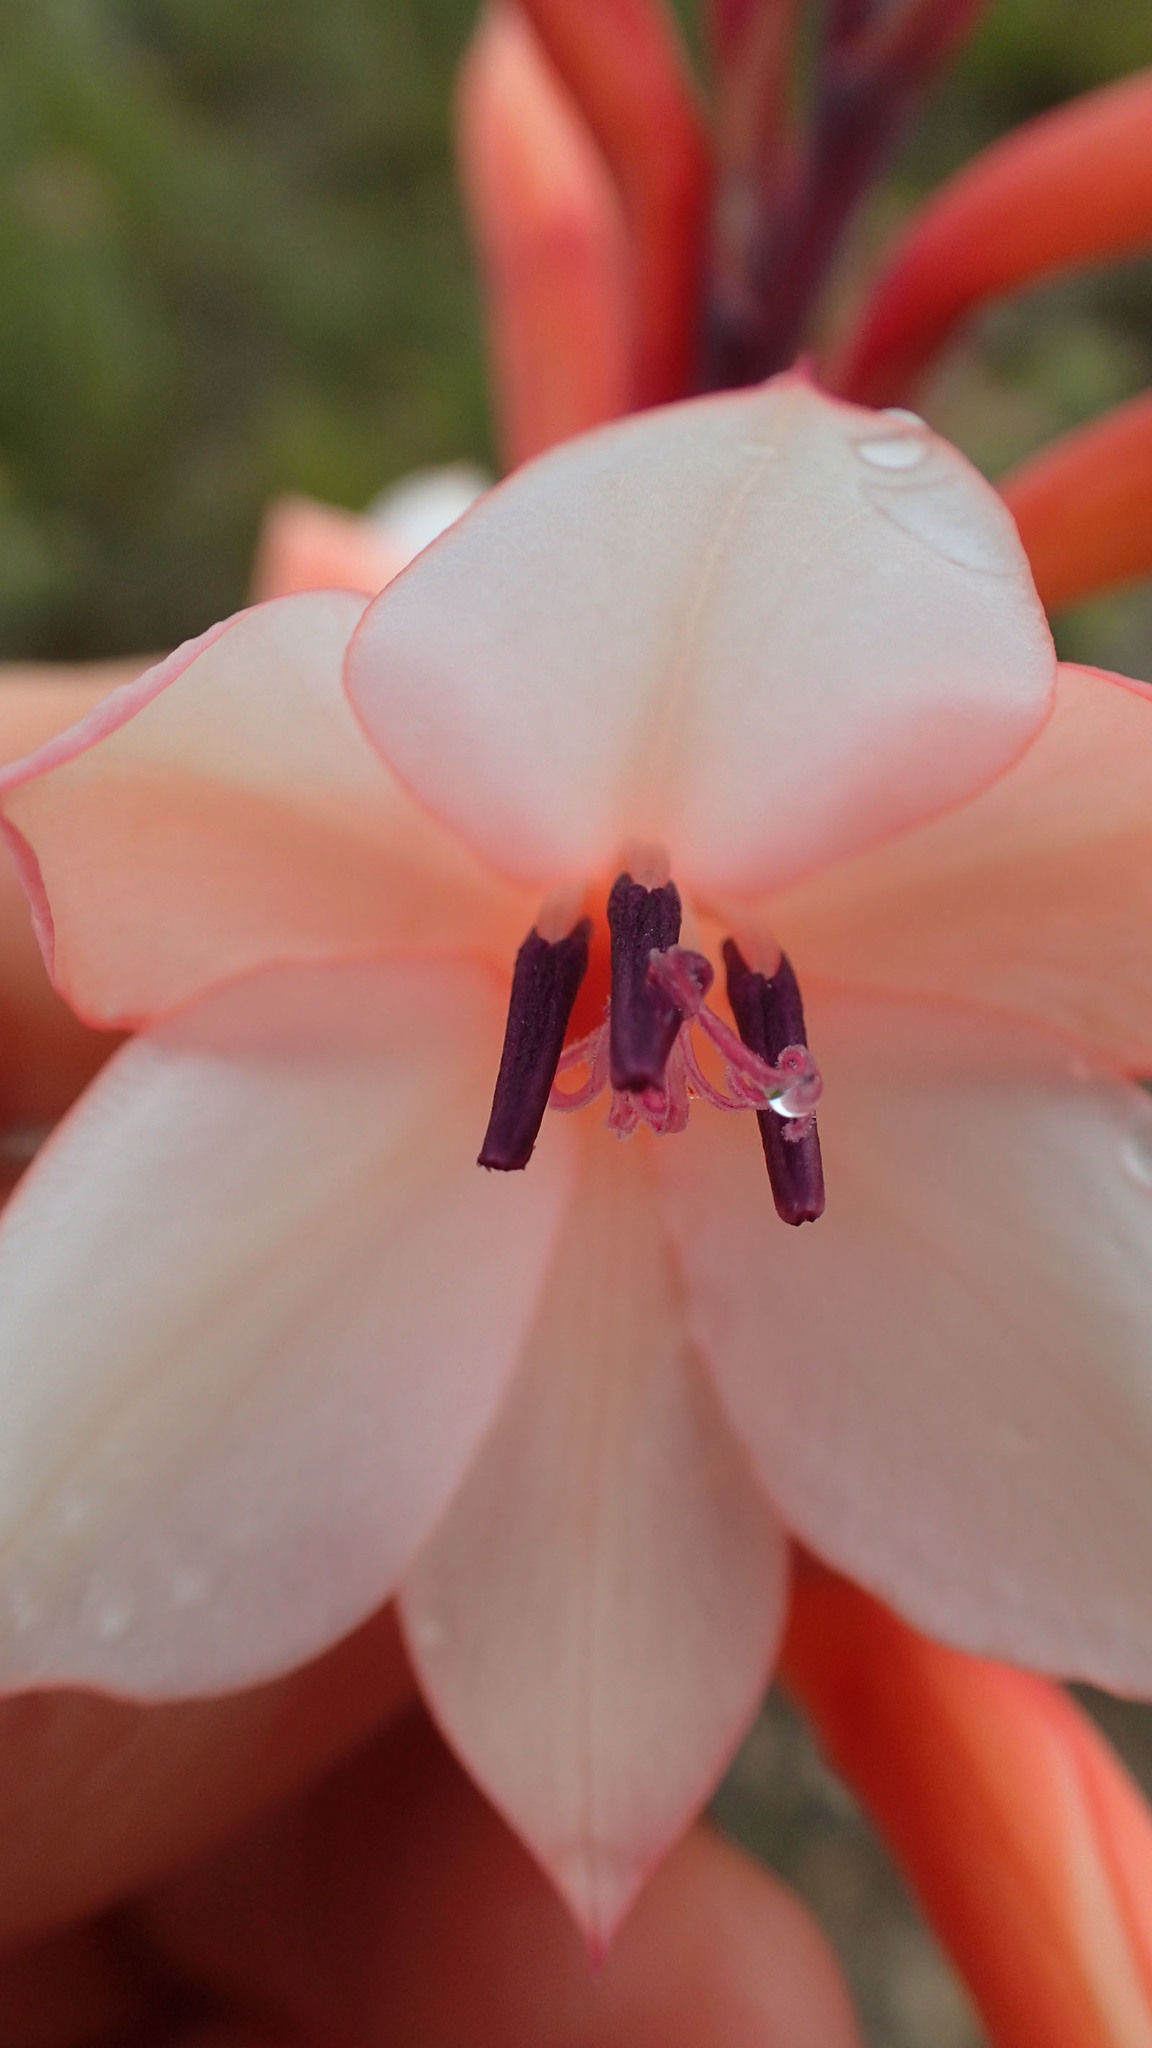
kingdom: Plantae
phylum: Tracheophyta
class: Liliopsida
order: Asparagales
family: Iridaceae
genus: Watsonia
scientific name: Watsonia fourcadei
